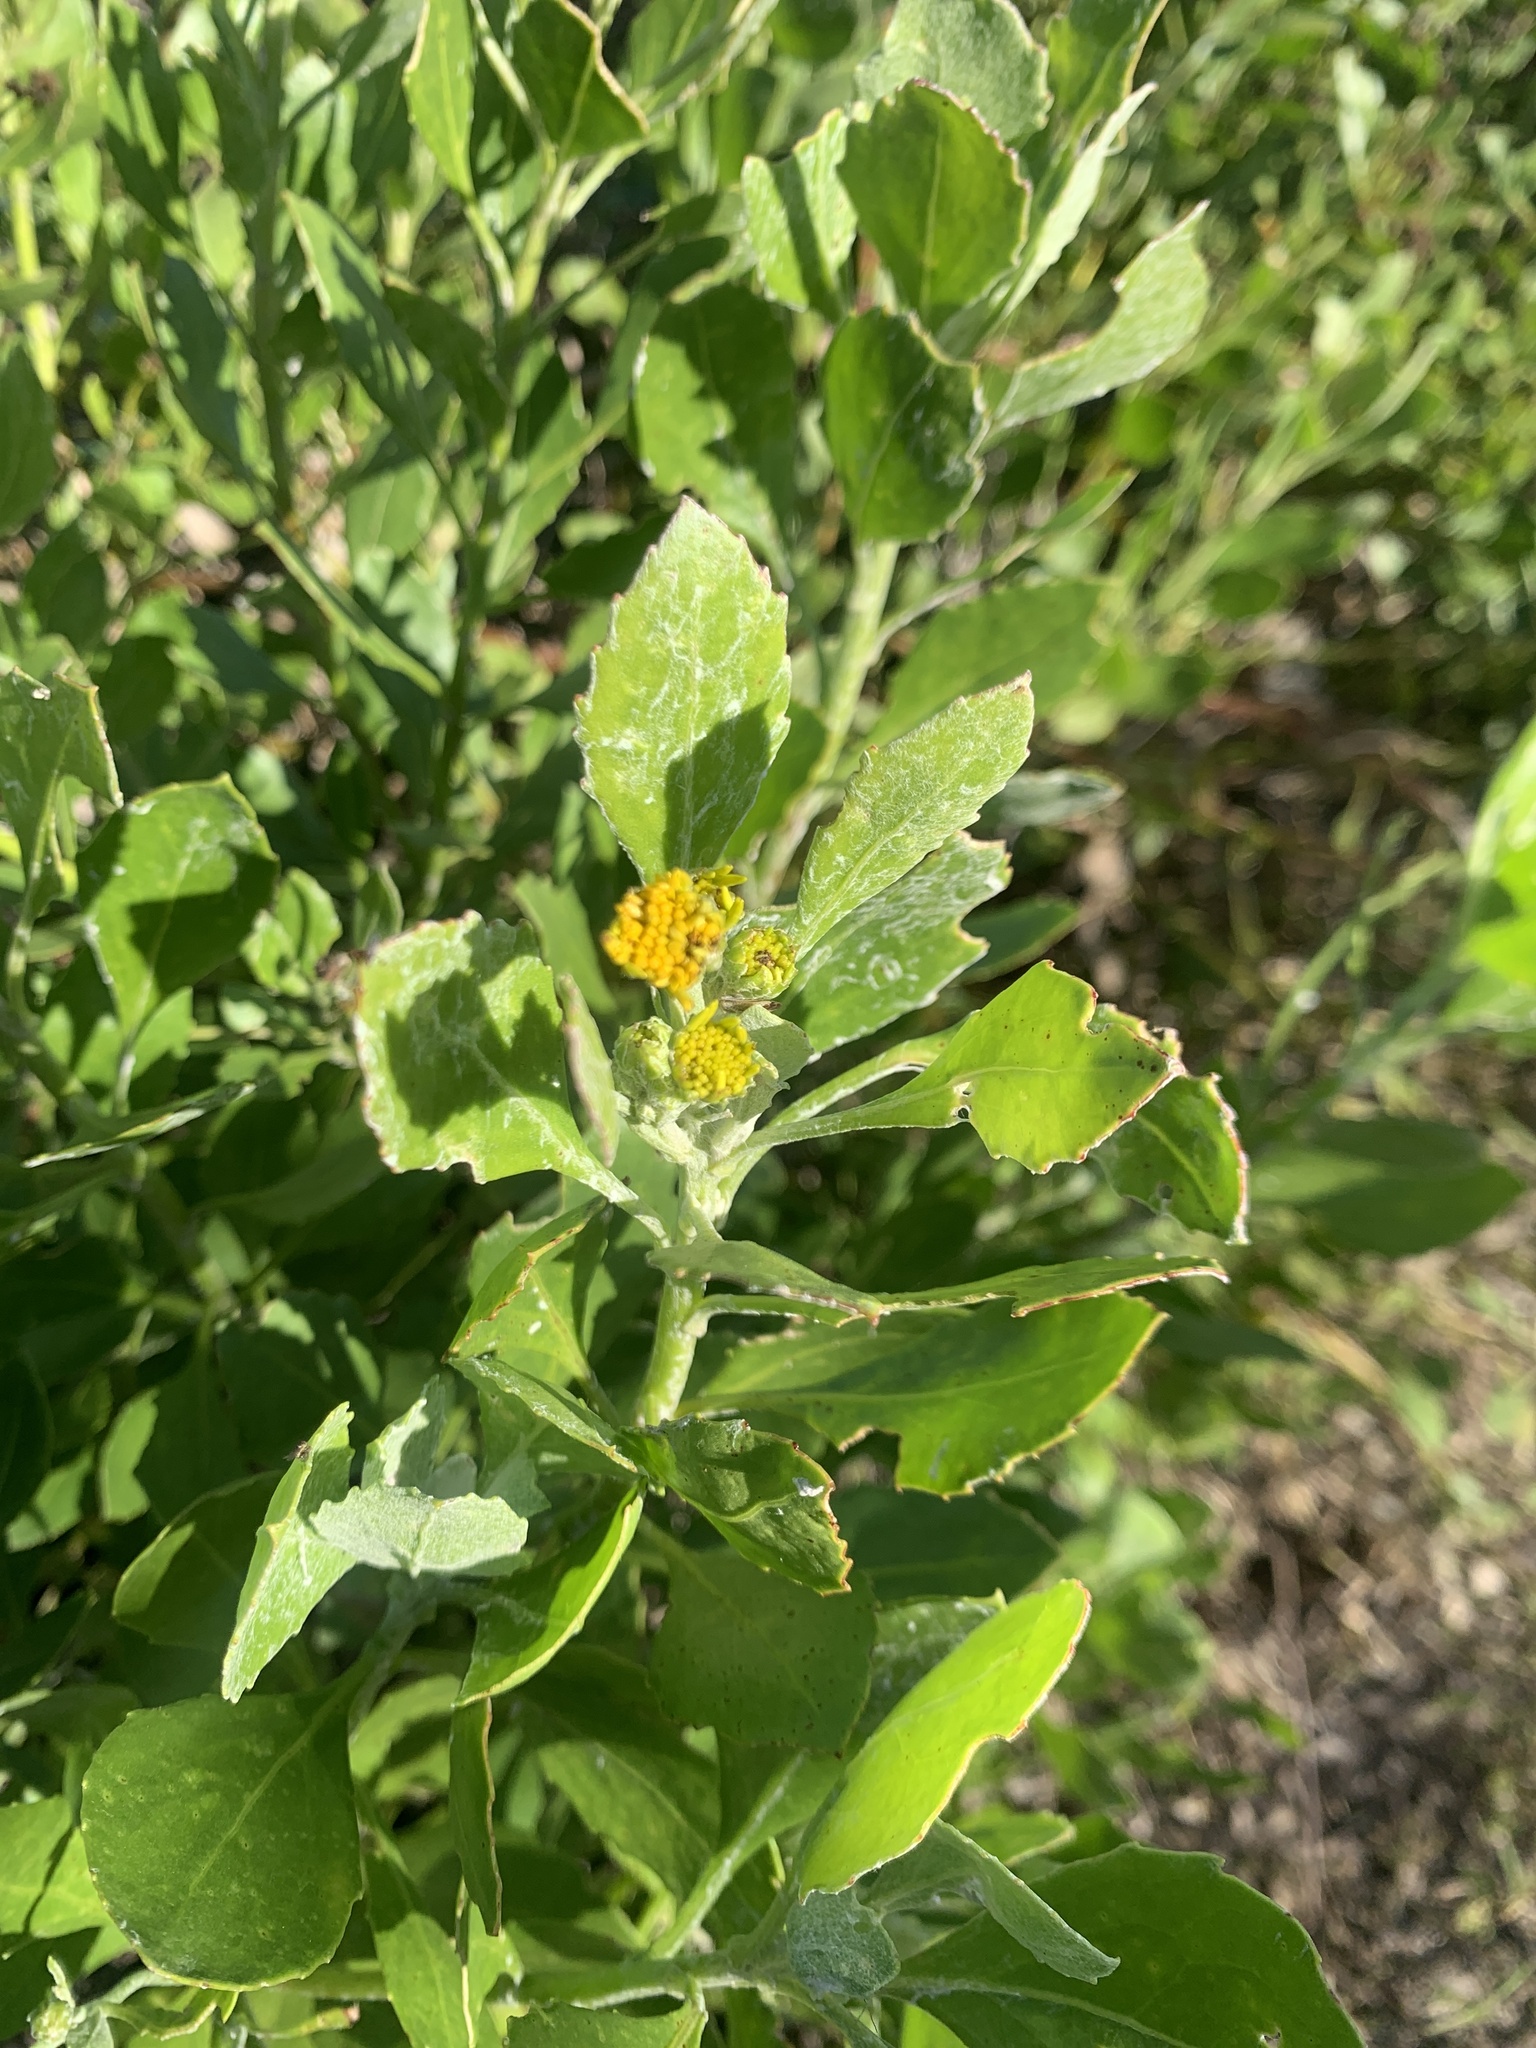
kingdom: Plantae
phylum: Tracheophyta
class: Magnoliopsida
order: Asterales
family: Asteraceae
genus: Osteospermum
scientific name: Osteospermum moniliferum
